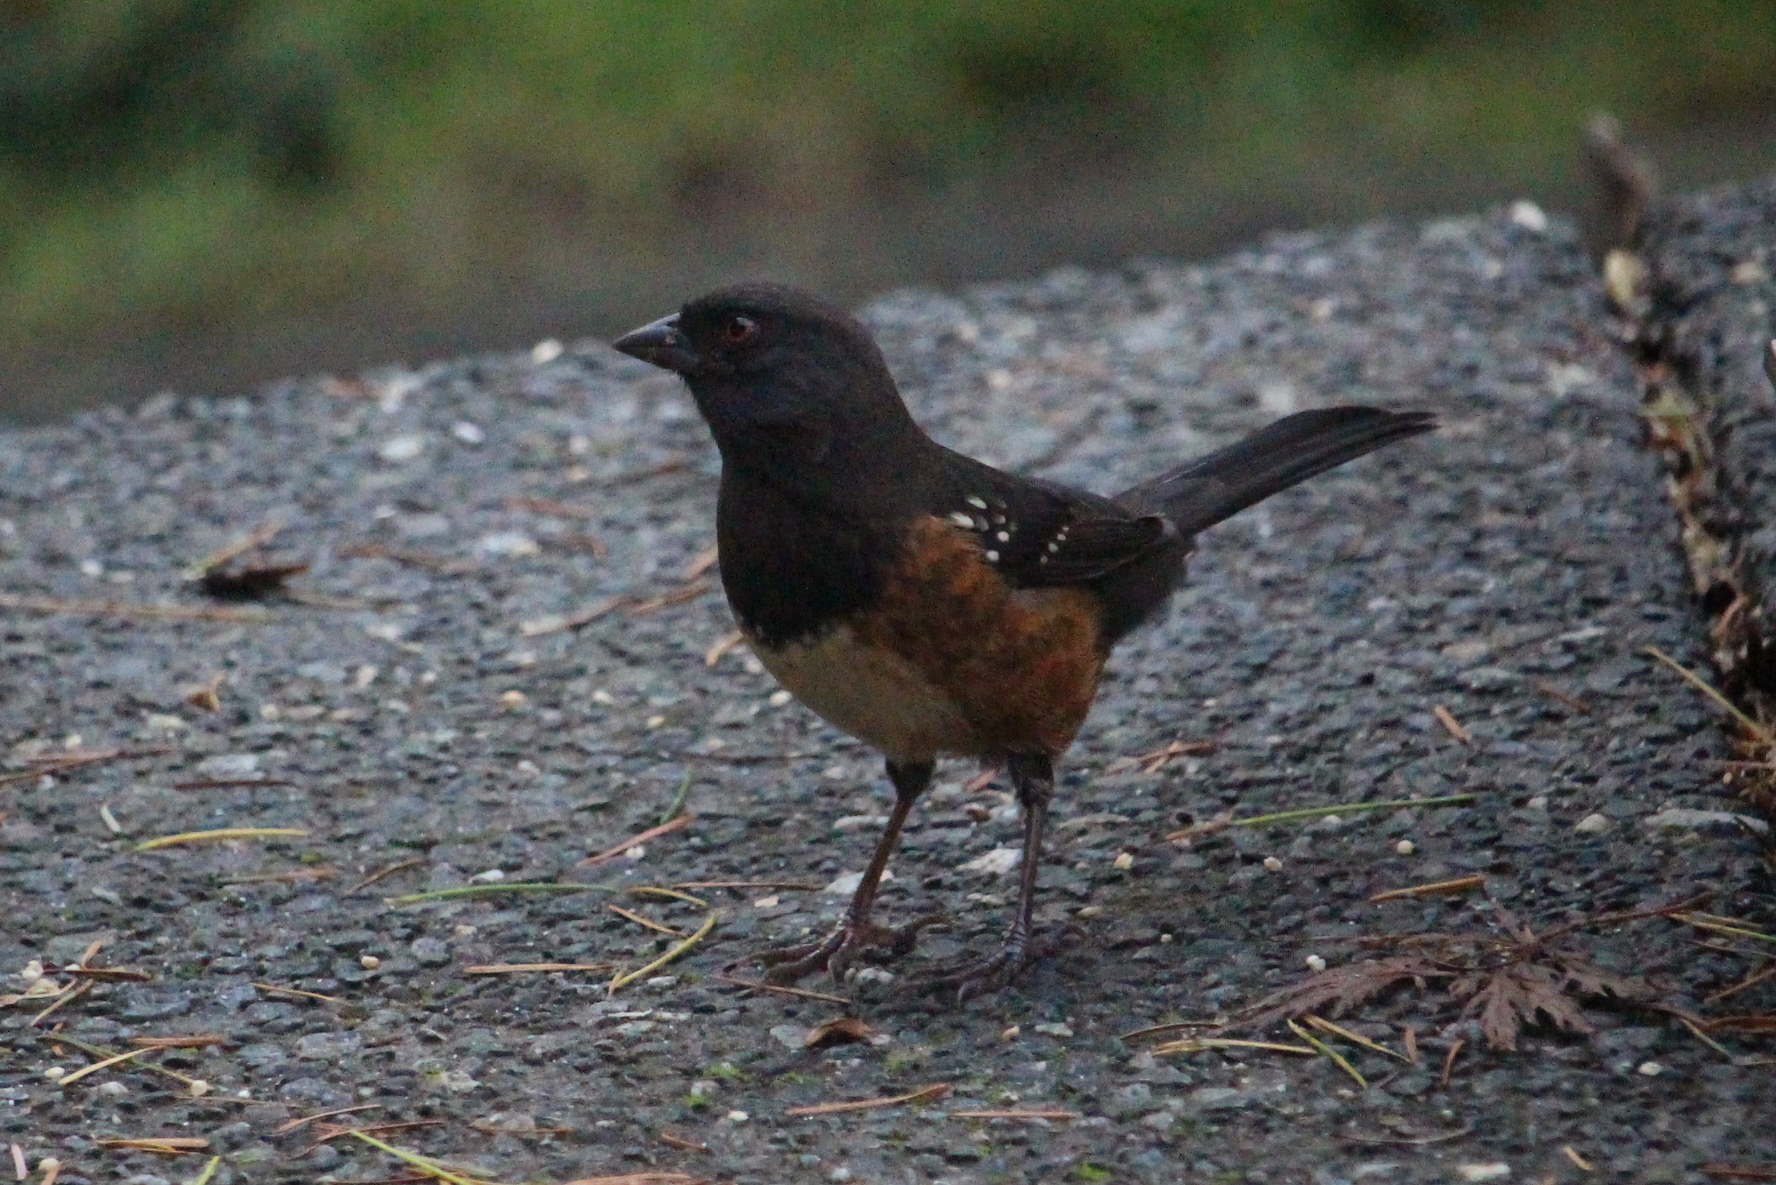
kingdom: Animalia
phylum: Chordata
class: Aves
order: Passeriformes
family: Passerellidae
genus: Pipilo
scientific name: Pipilo maculatus
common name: Spotted towhee
